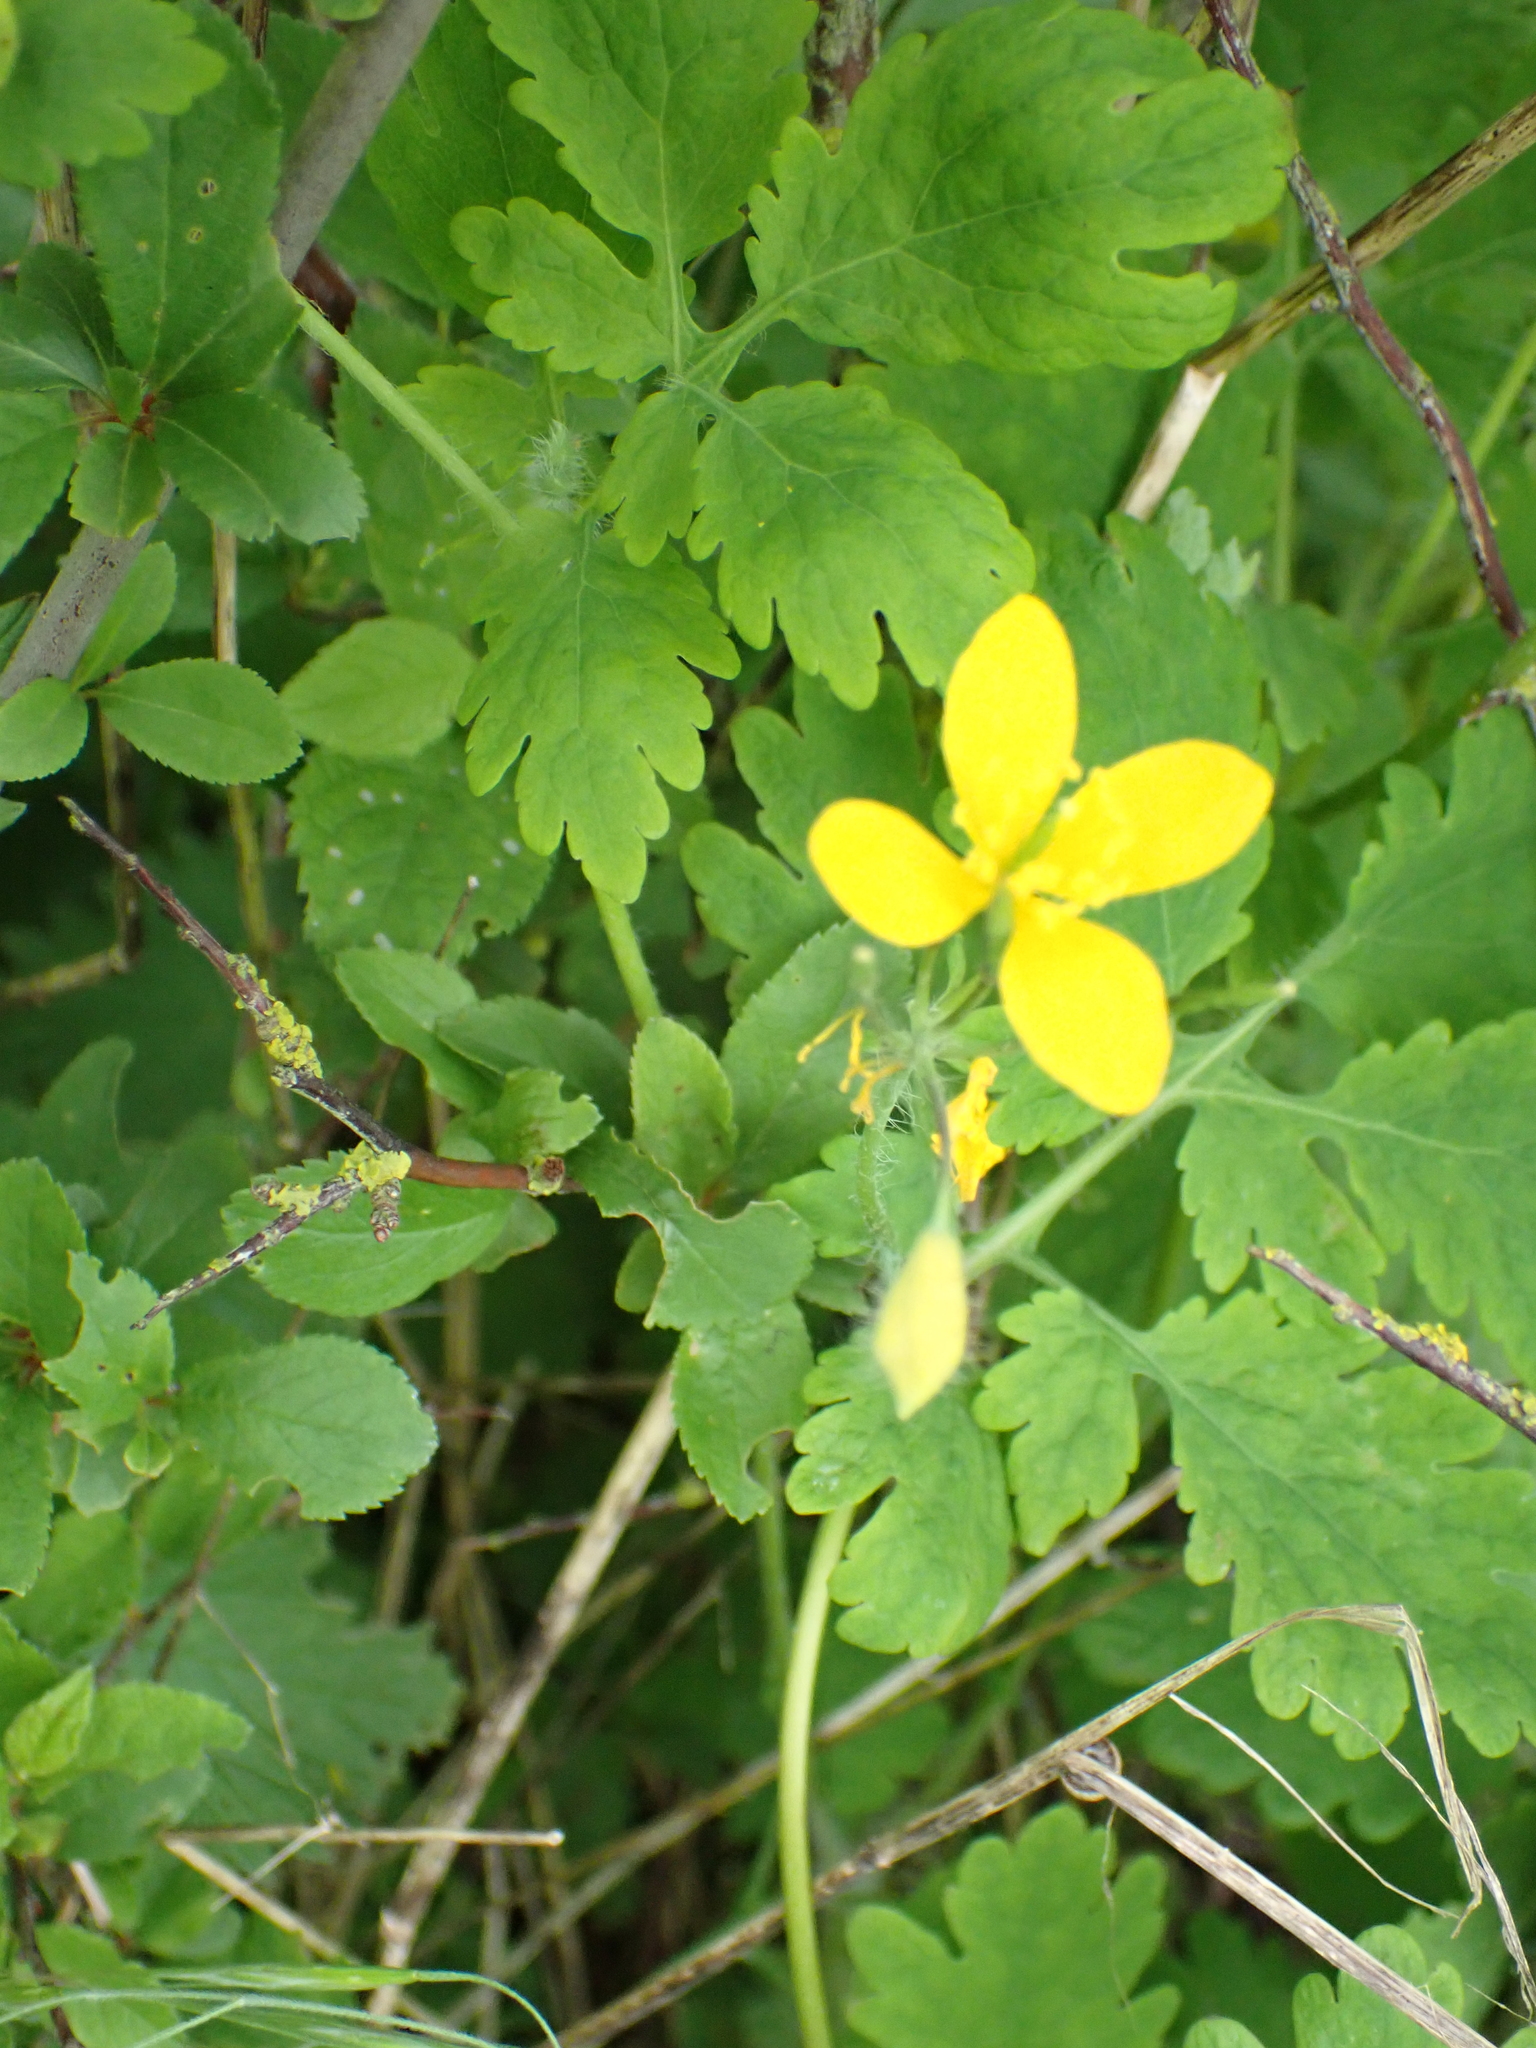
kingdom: Plantae
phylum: Tracheophyta
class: Magnoliopsida
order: Ranunculales
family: Papaveraceae
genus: Chelidonium
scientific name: Chelidonium majus
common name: Greater celandine
